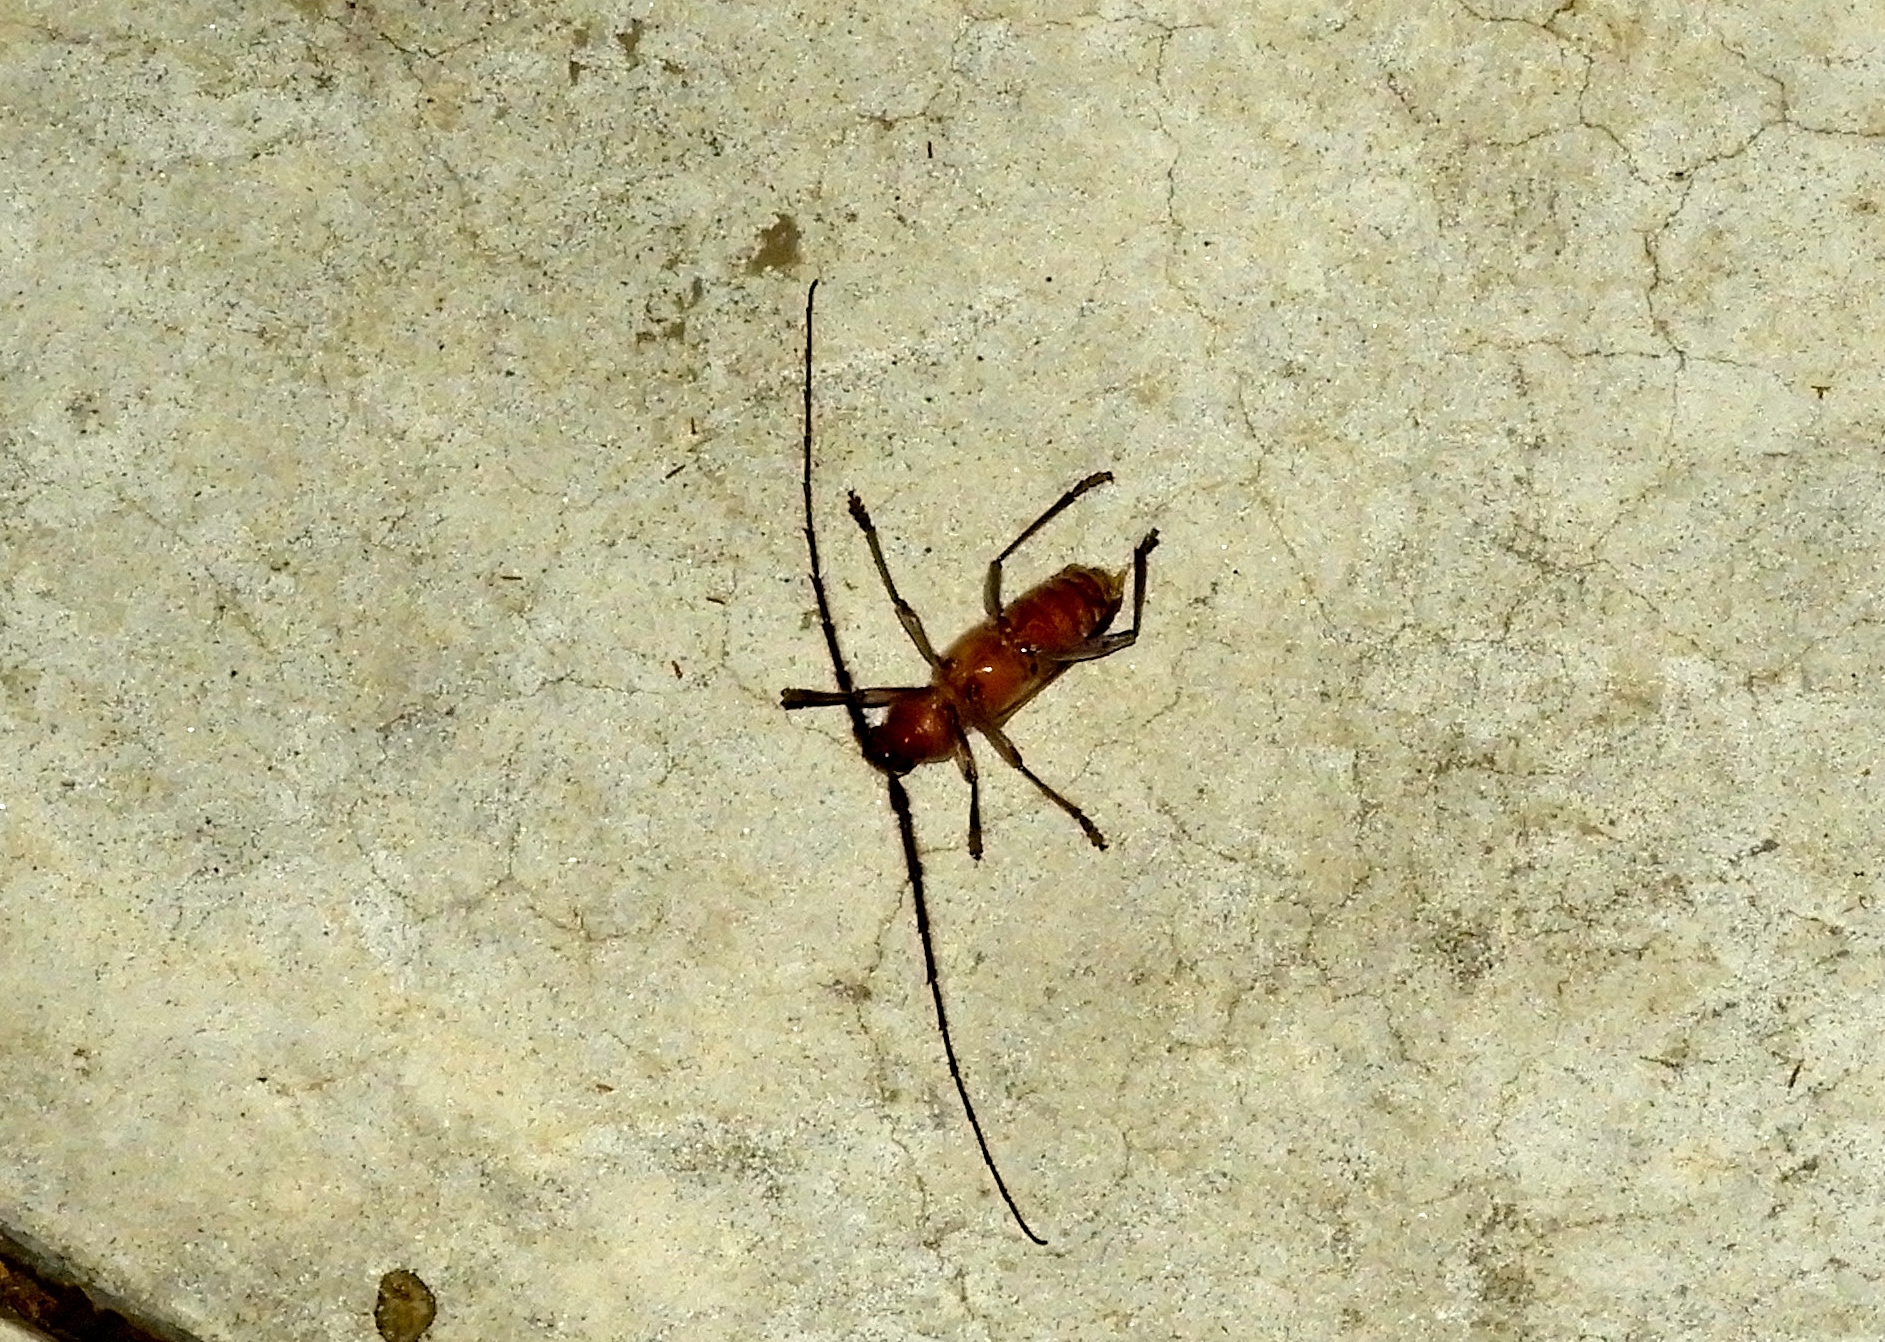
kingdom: Animalia
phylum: Arthropoda
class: Insecta
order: Coleoptera
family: Cerambycidae
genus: Gnaphalodes
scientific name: Gnaphalodes trachyderoides
